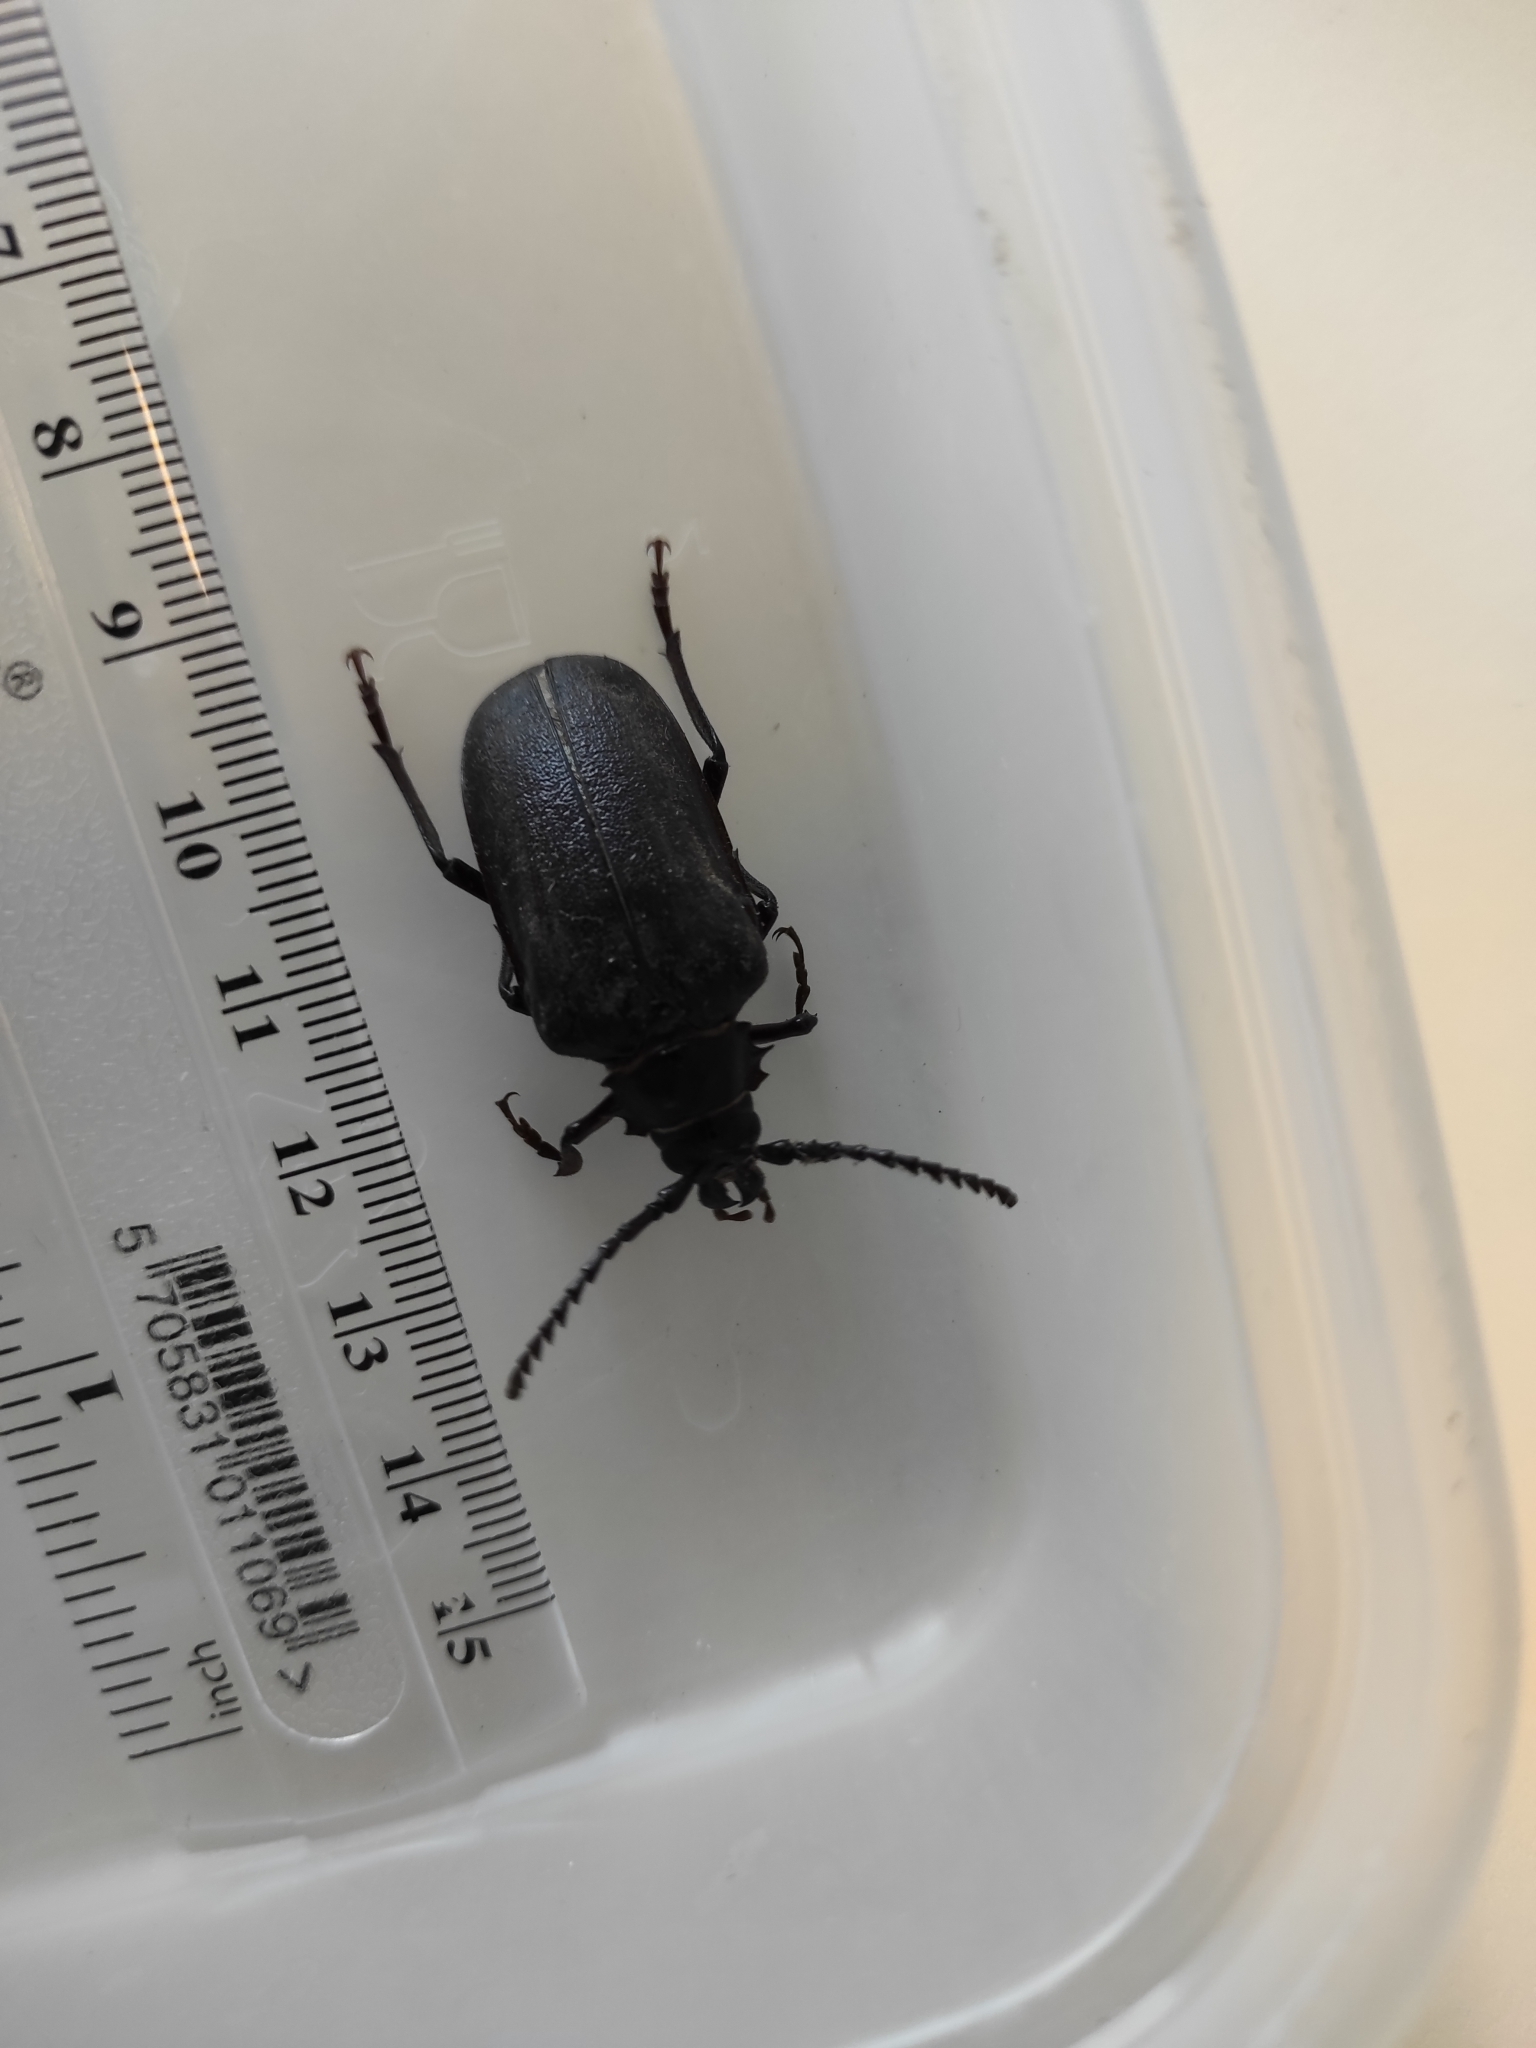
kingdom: Animalia
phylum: Arthropoda
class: Insecta
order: Coleoptera
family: Cerambycidae
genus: Prionus
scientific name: Prionus coriarius
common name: Tanner beetle
